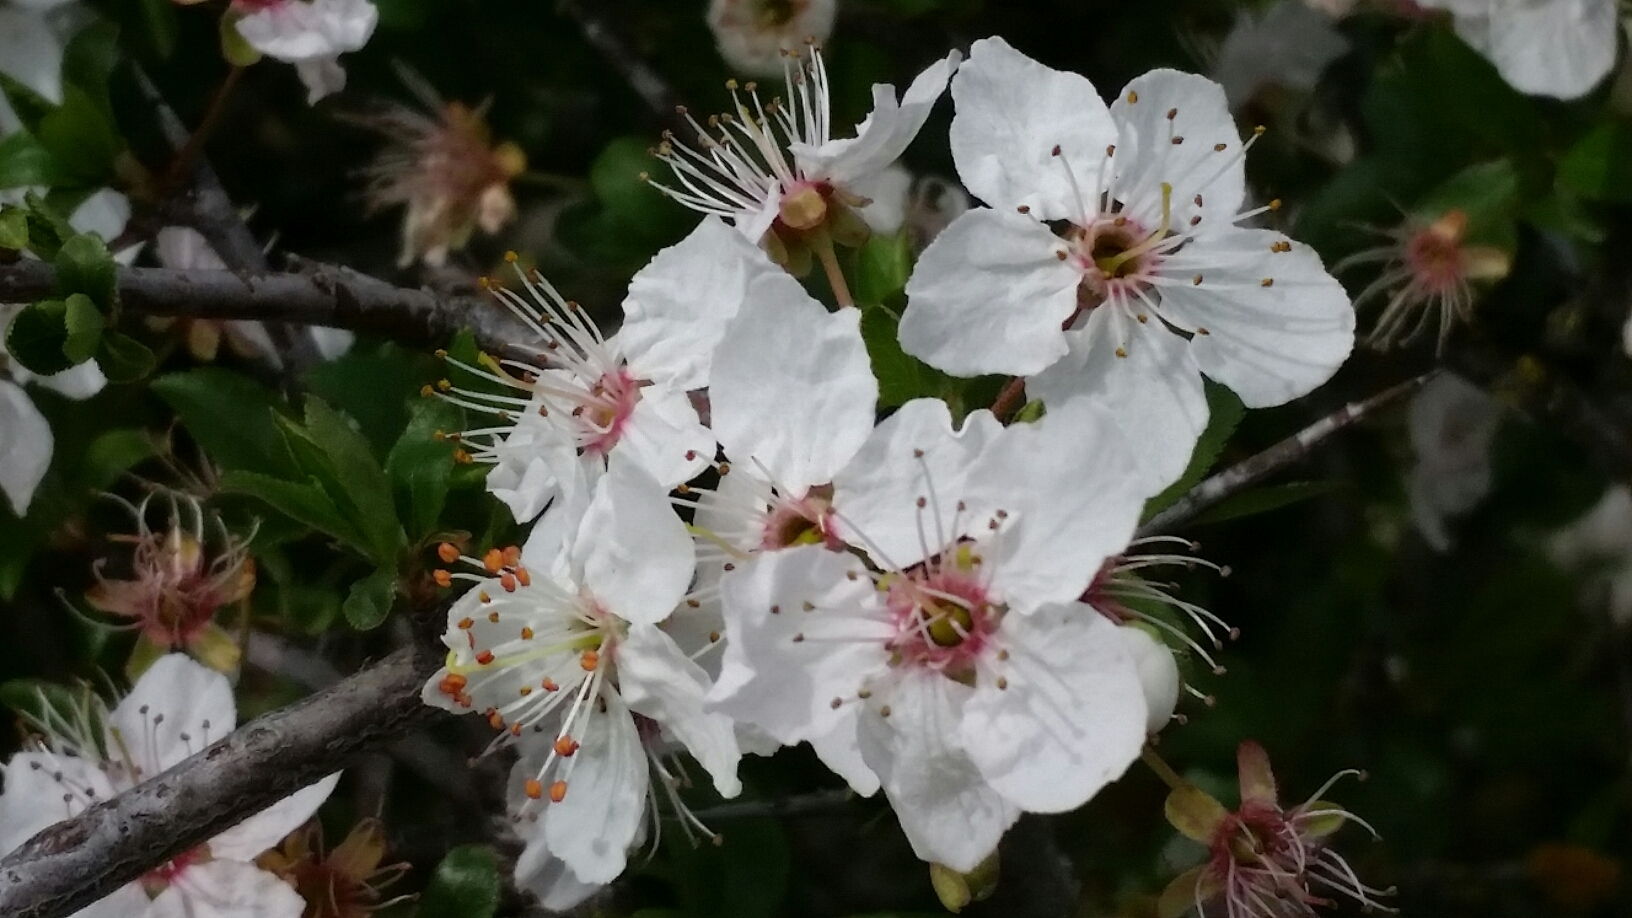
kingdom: Plantae
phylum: Tracheophyta
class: Magnoliopsida
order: Rosales
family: Rosaceae
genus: Prunus
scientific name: Prunus cerasifera
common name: Cherry plum
